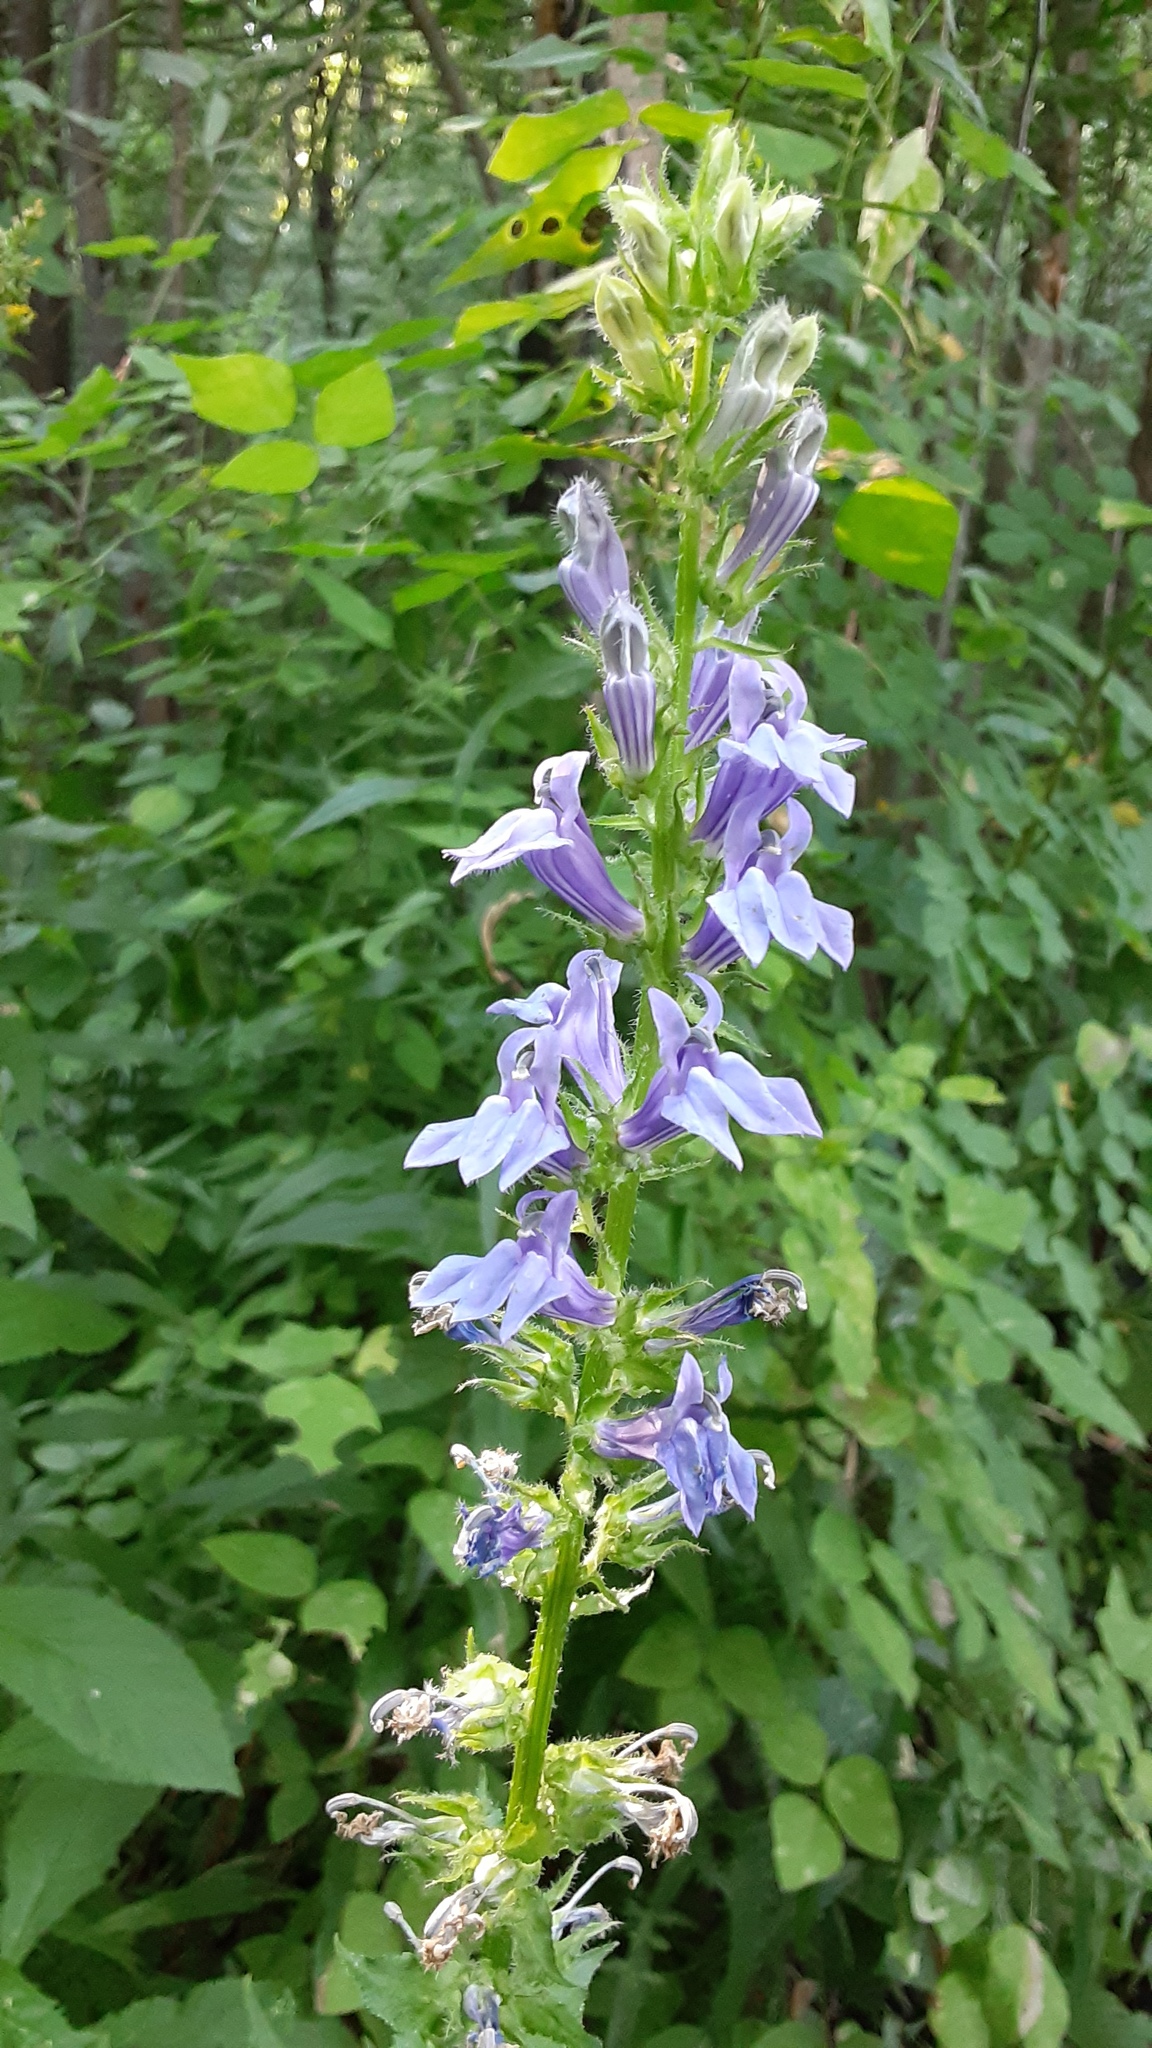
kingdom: Plantae
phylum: Tracheophyta
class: Magnoliopsida
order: Asterales
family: Campanulaceae
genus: Lobelia
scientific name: Lobelia siphilitica
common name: Great lobelia
